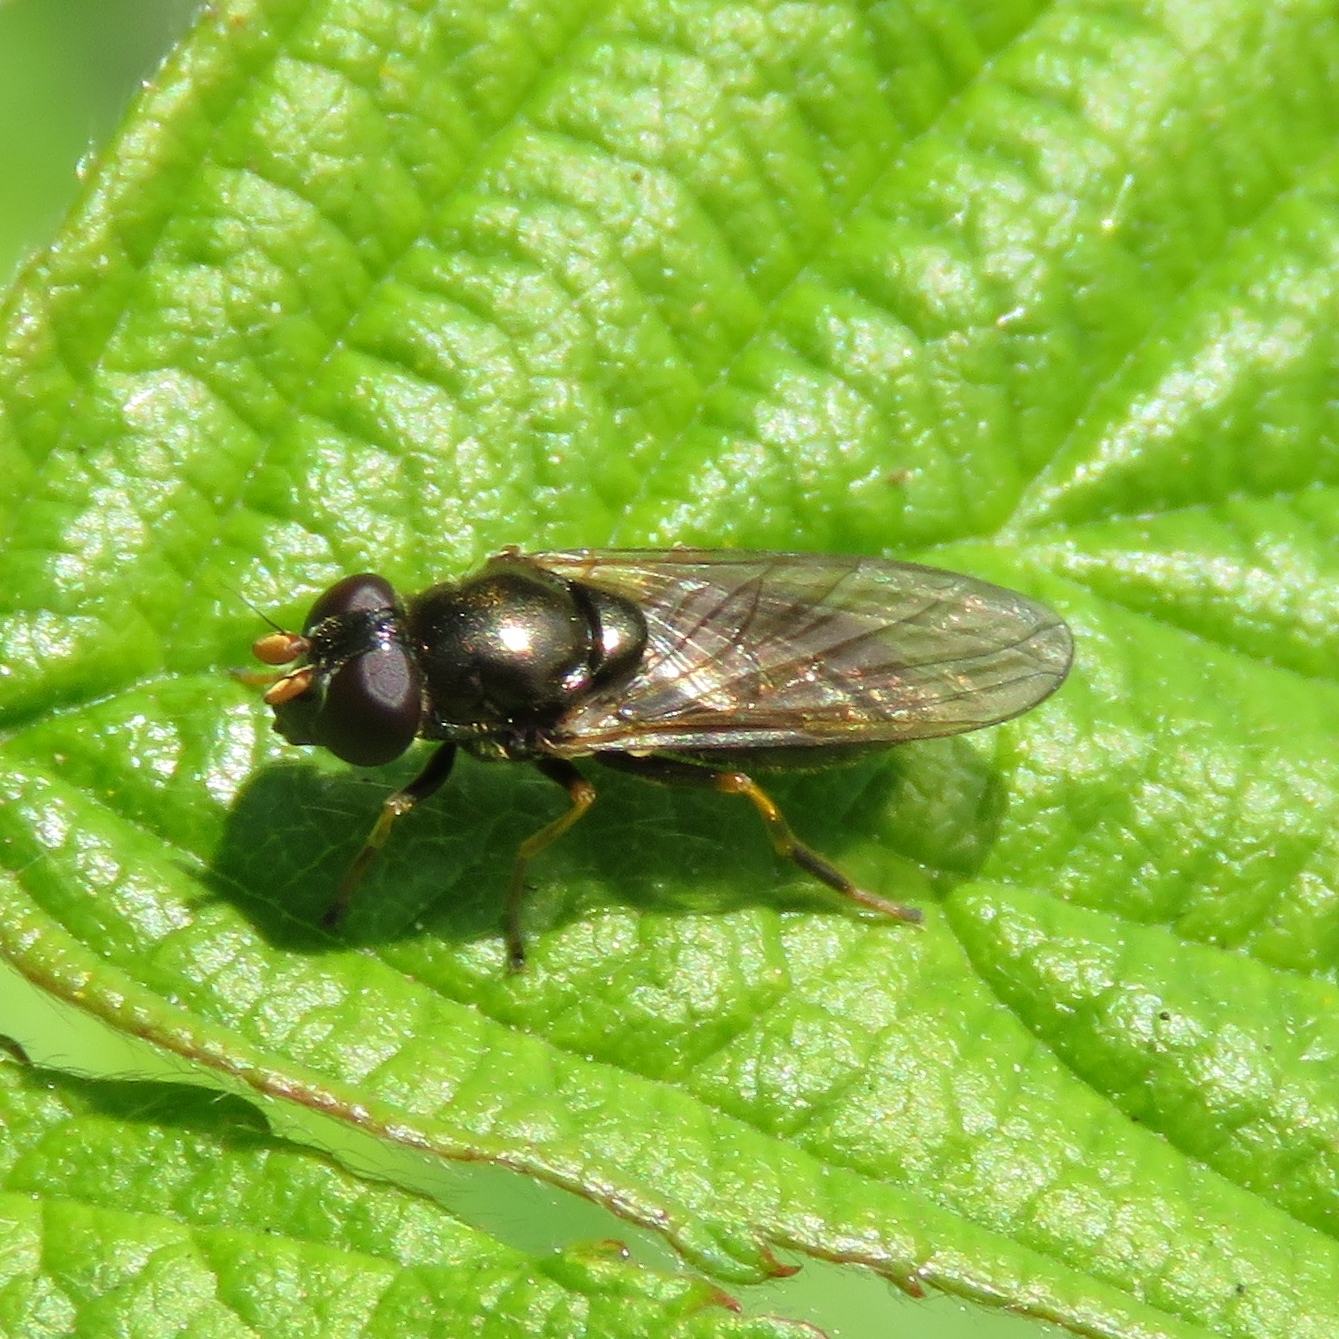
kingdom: Animalia
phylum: Arthropoda
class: Insecta
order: Diptera
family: Syrphidae
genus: Cheilosia
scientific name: Cheilosia pagana
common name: Hover fly
